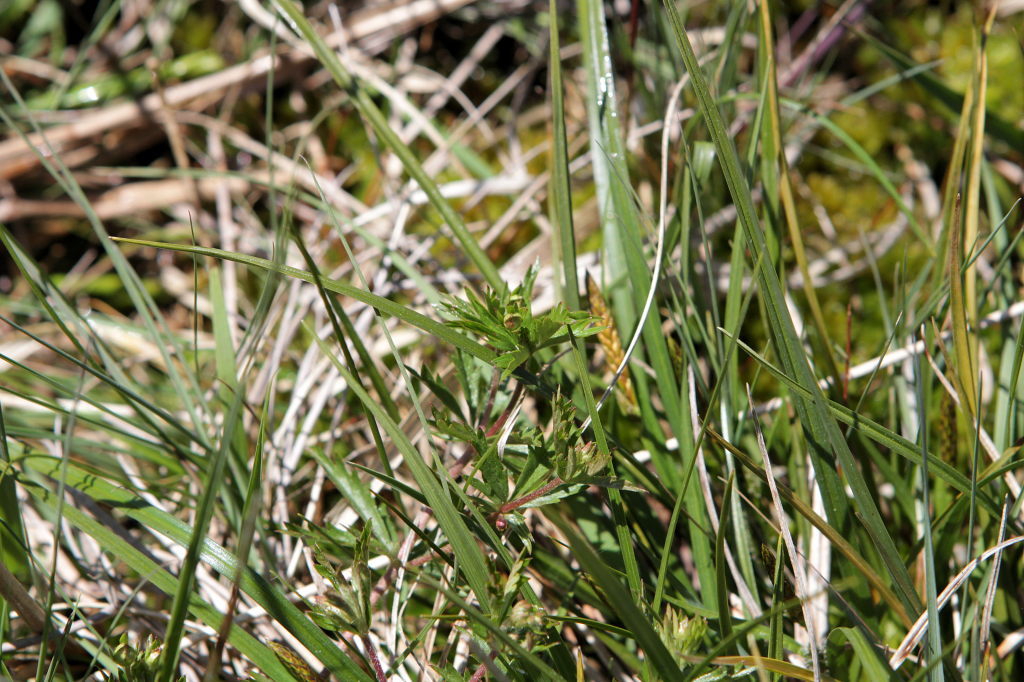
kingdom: Plantae
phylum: Tracheophyta
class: Magnoliopsida
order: Rosales
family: Rosaceae
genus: Potentilla
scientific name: Potentilla erecta
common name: Tormentil
